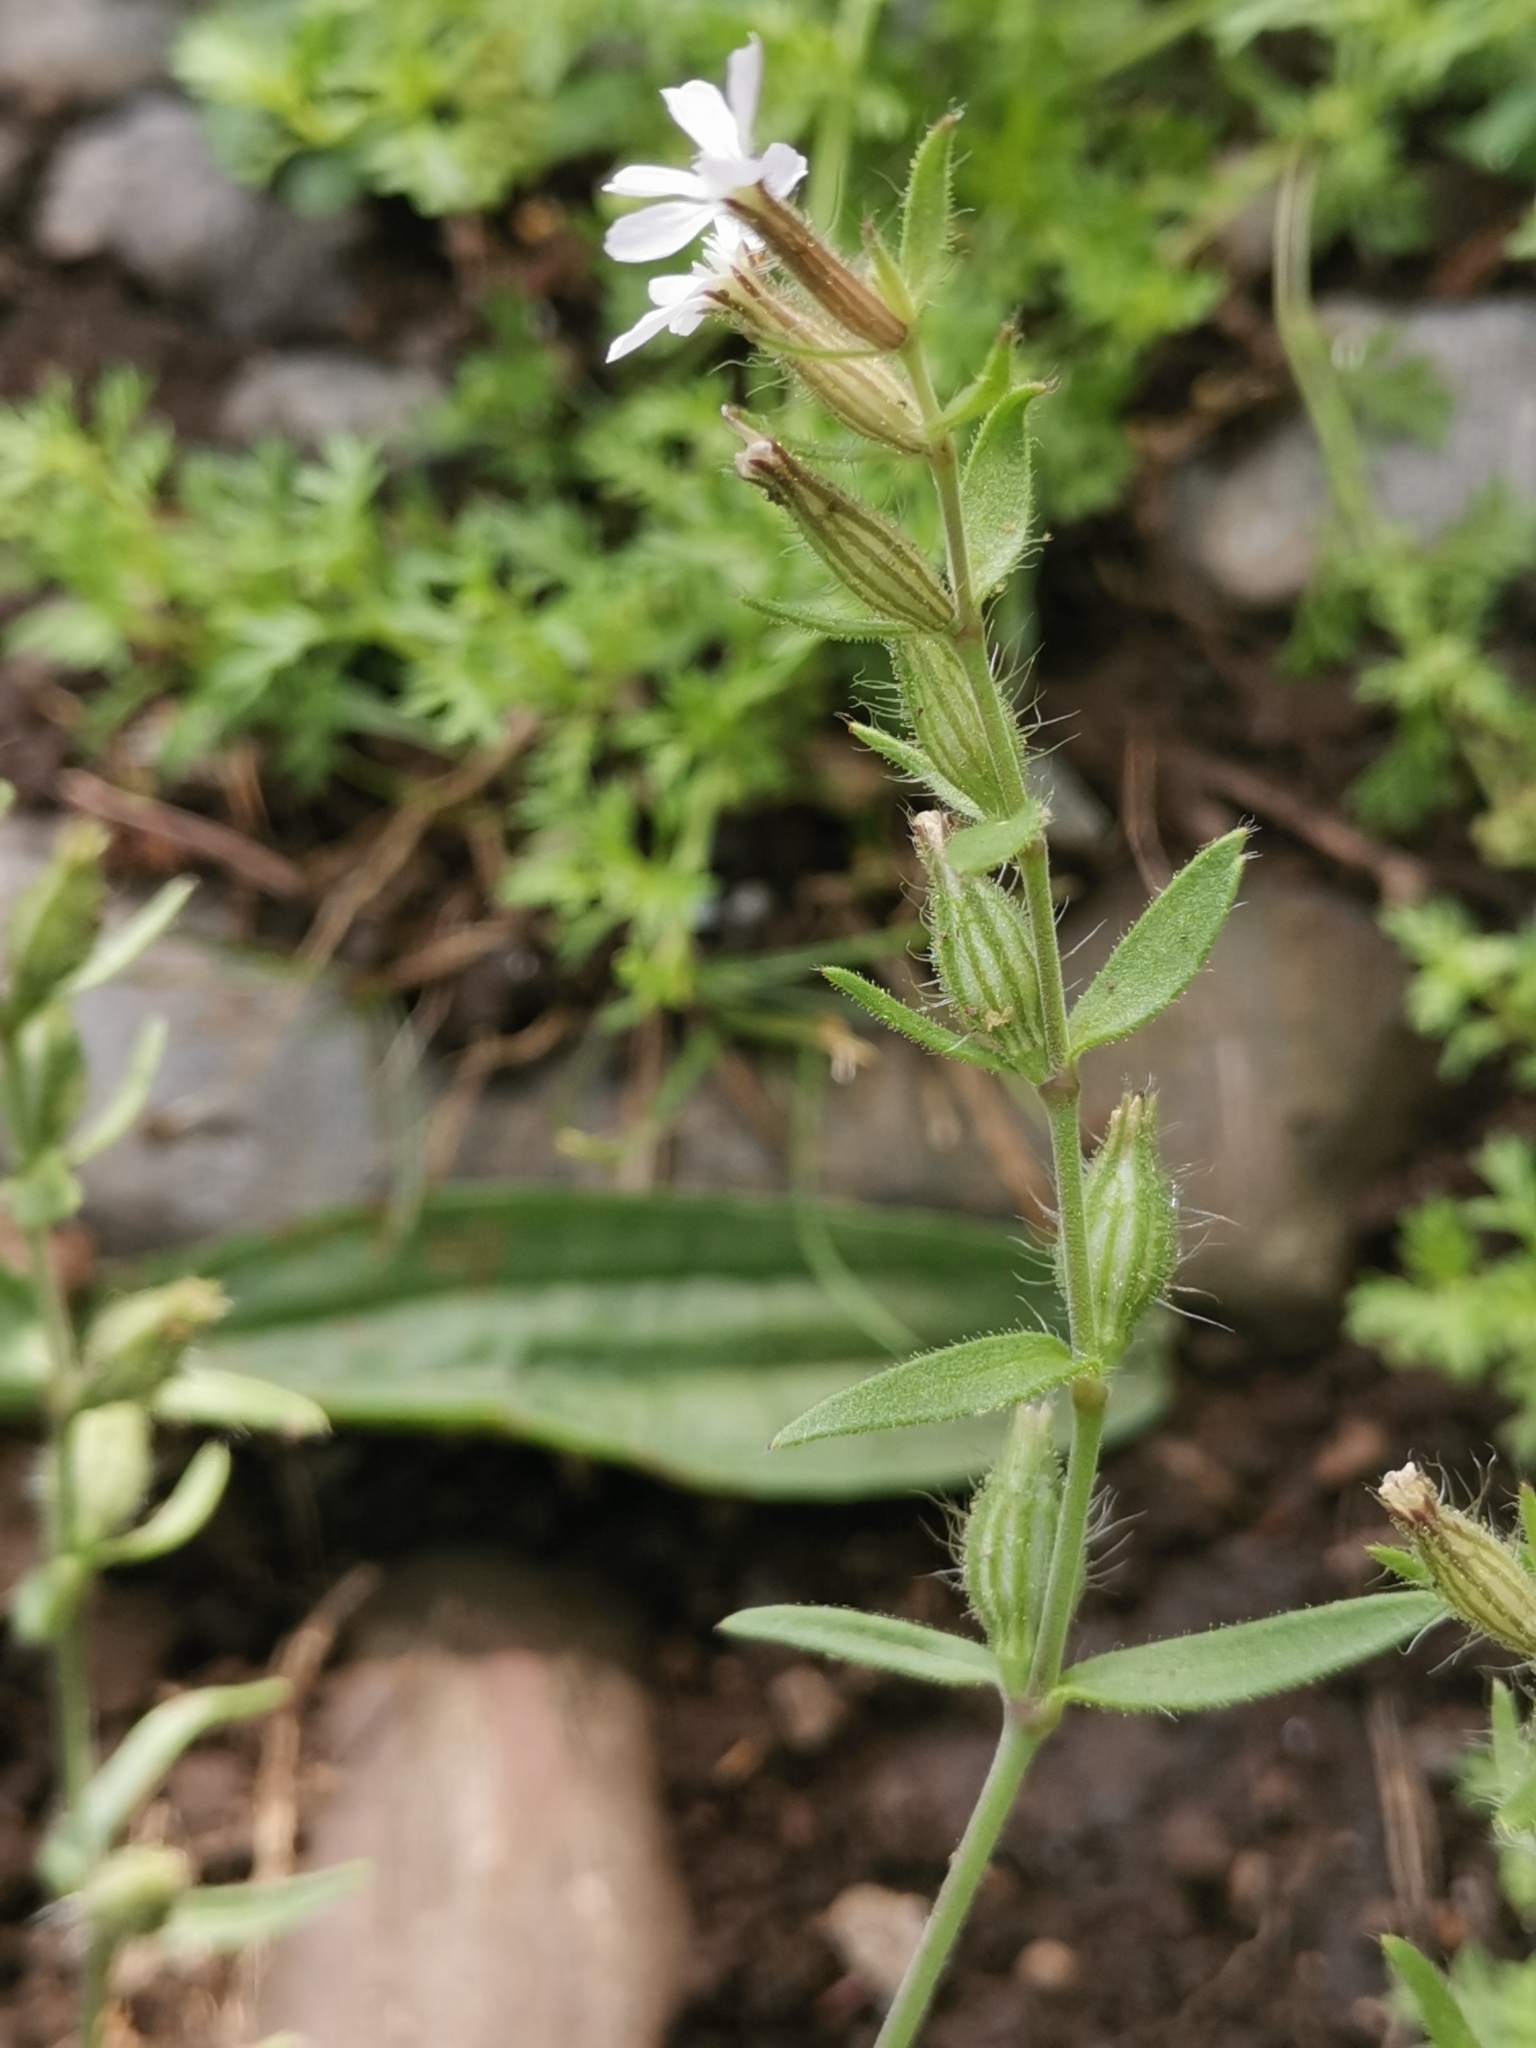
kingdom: Plantae
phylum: Tracheophyta
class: Magnoliopsida
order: Caryophyllales
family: Caryophyllaceae
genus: Silene
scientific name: Silene gallica
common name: Small-flowered catchfly
